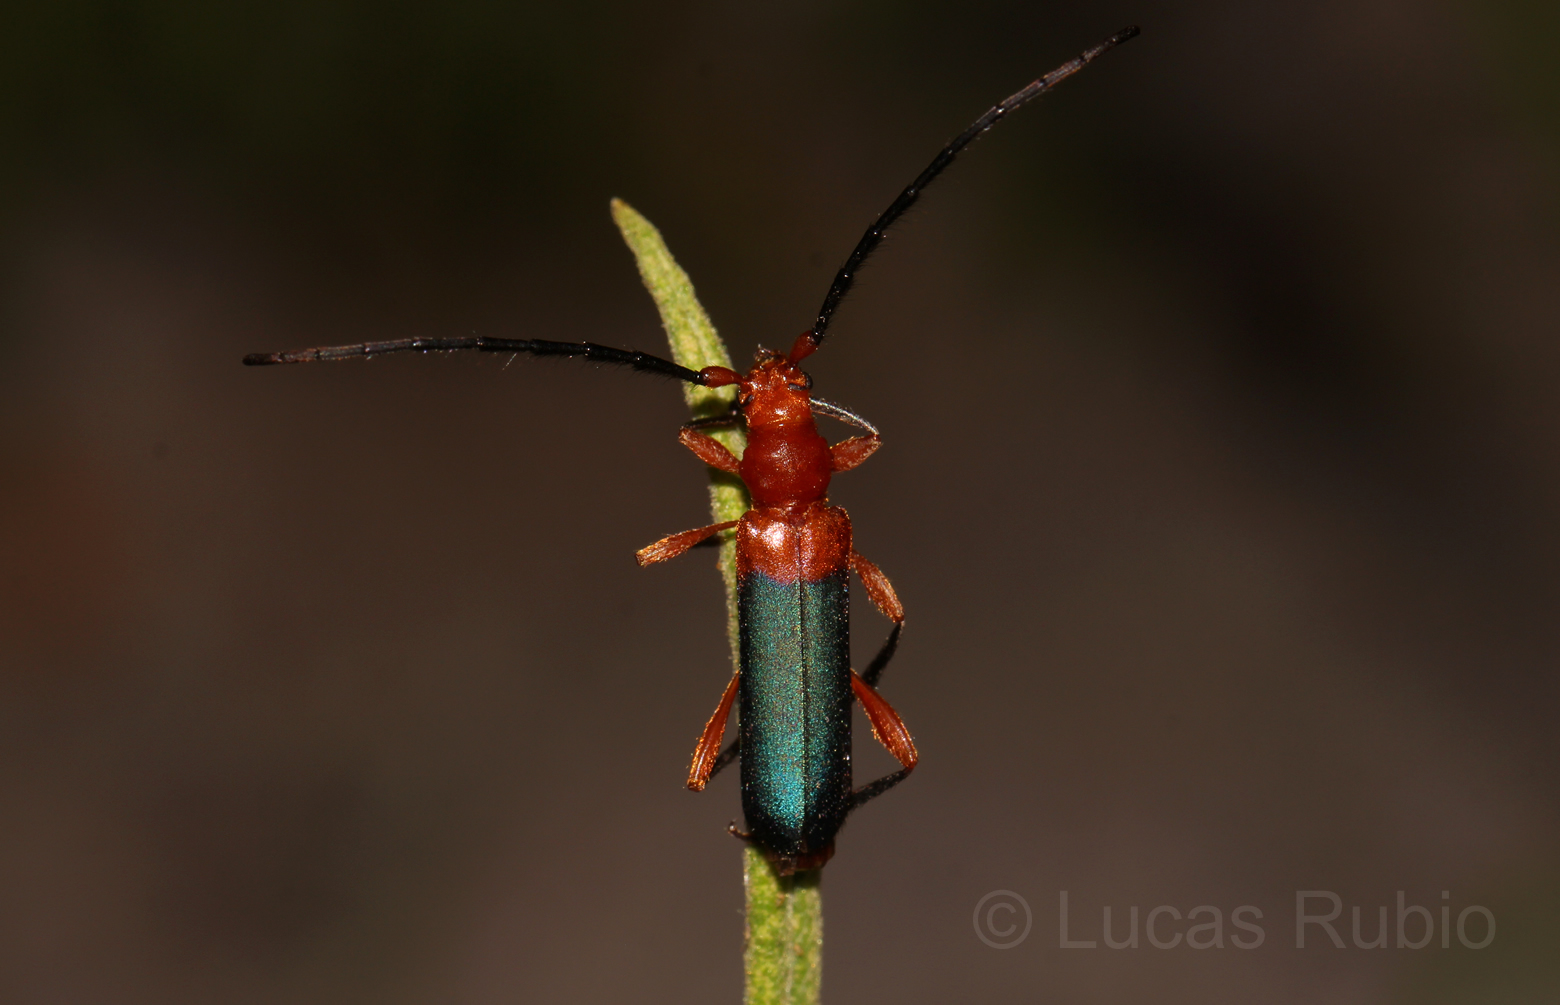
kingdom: Animalia
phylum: Arthropoda
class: Insecta
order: Coleoptera
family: Cerambycidae
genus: Ethemon
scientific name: Ethemon basale
